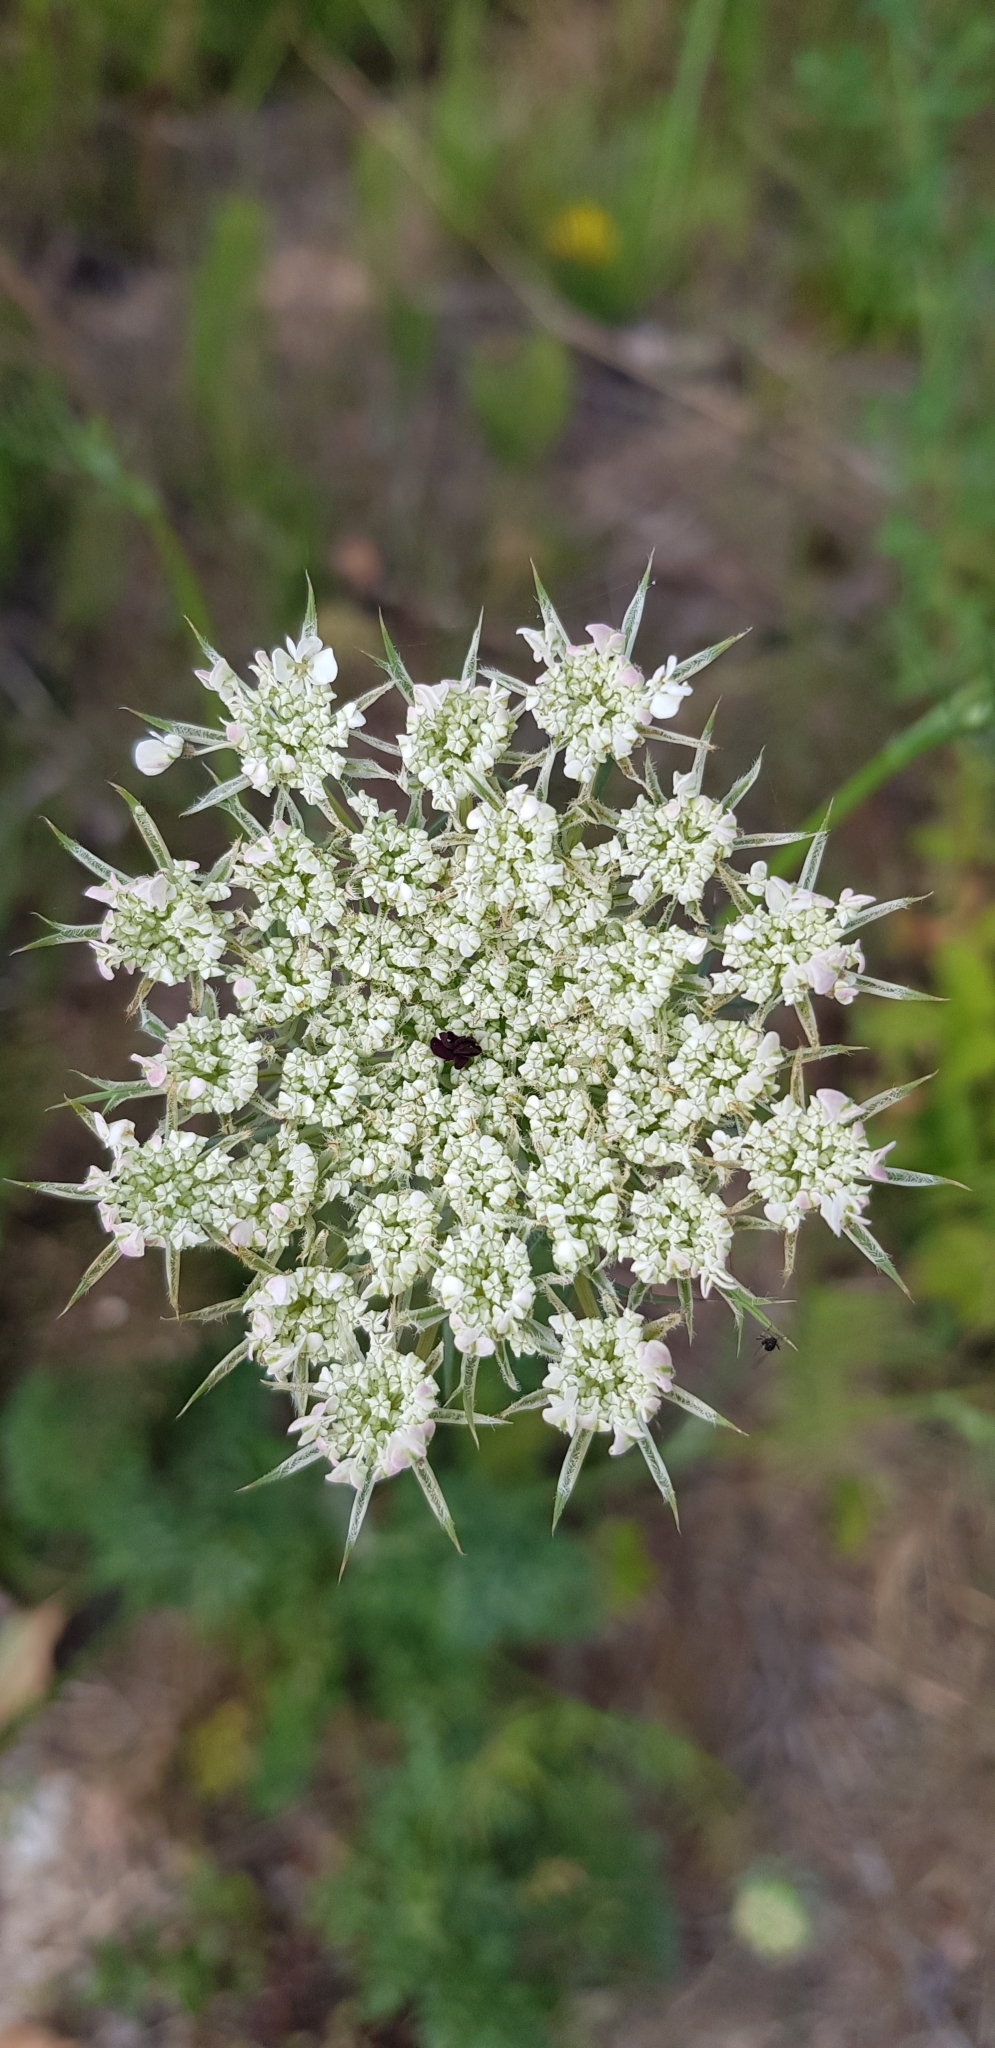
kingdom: Plantae
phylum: Tracheophyta
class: Magnoliopsida
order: Apiales
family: Apiaceae
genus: Daucus
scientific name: Daucus carota
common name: Wild carrot
